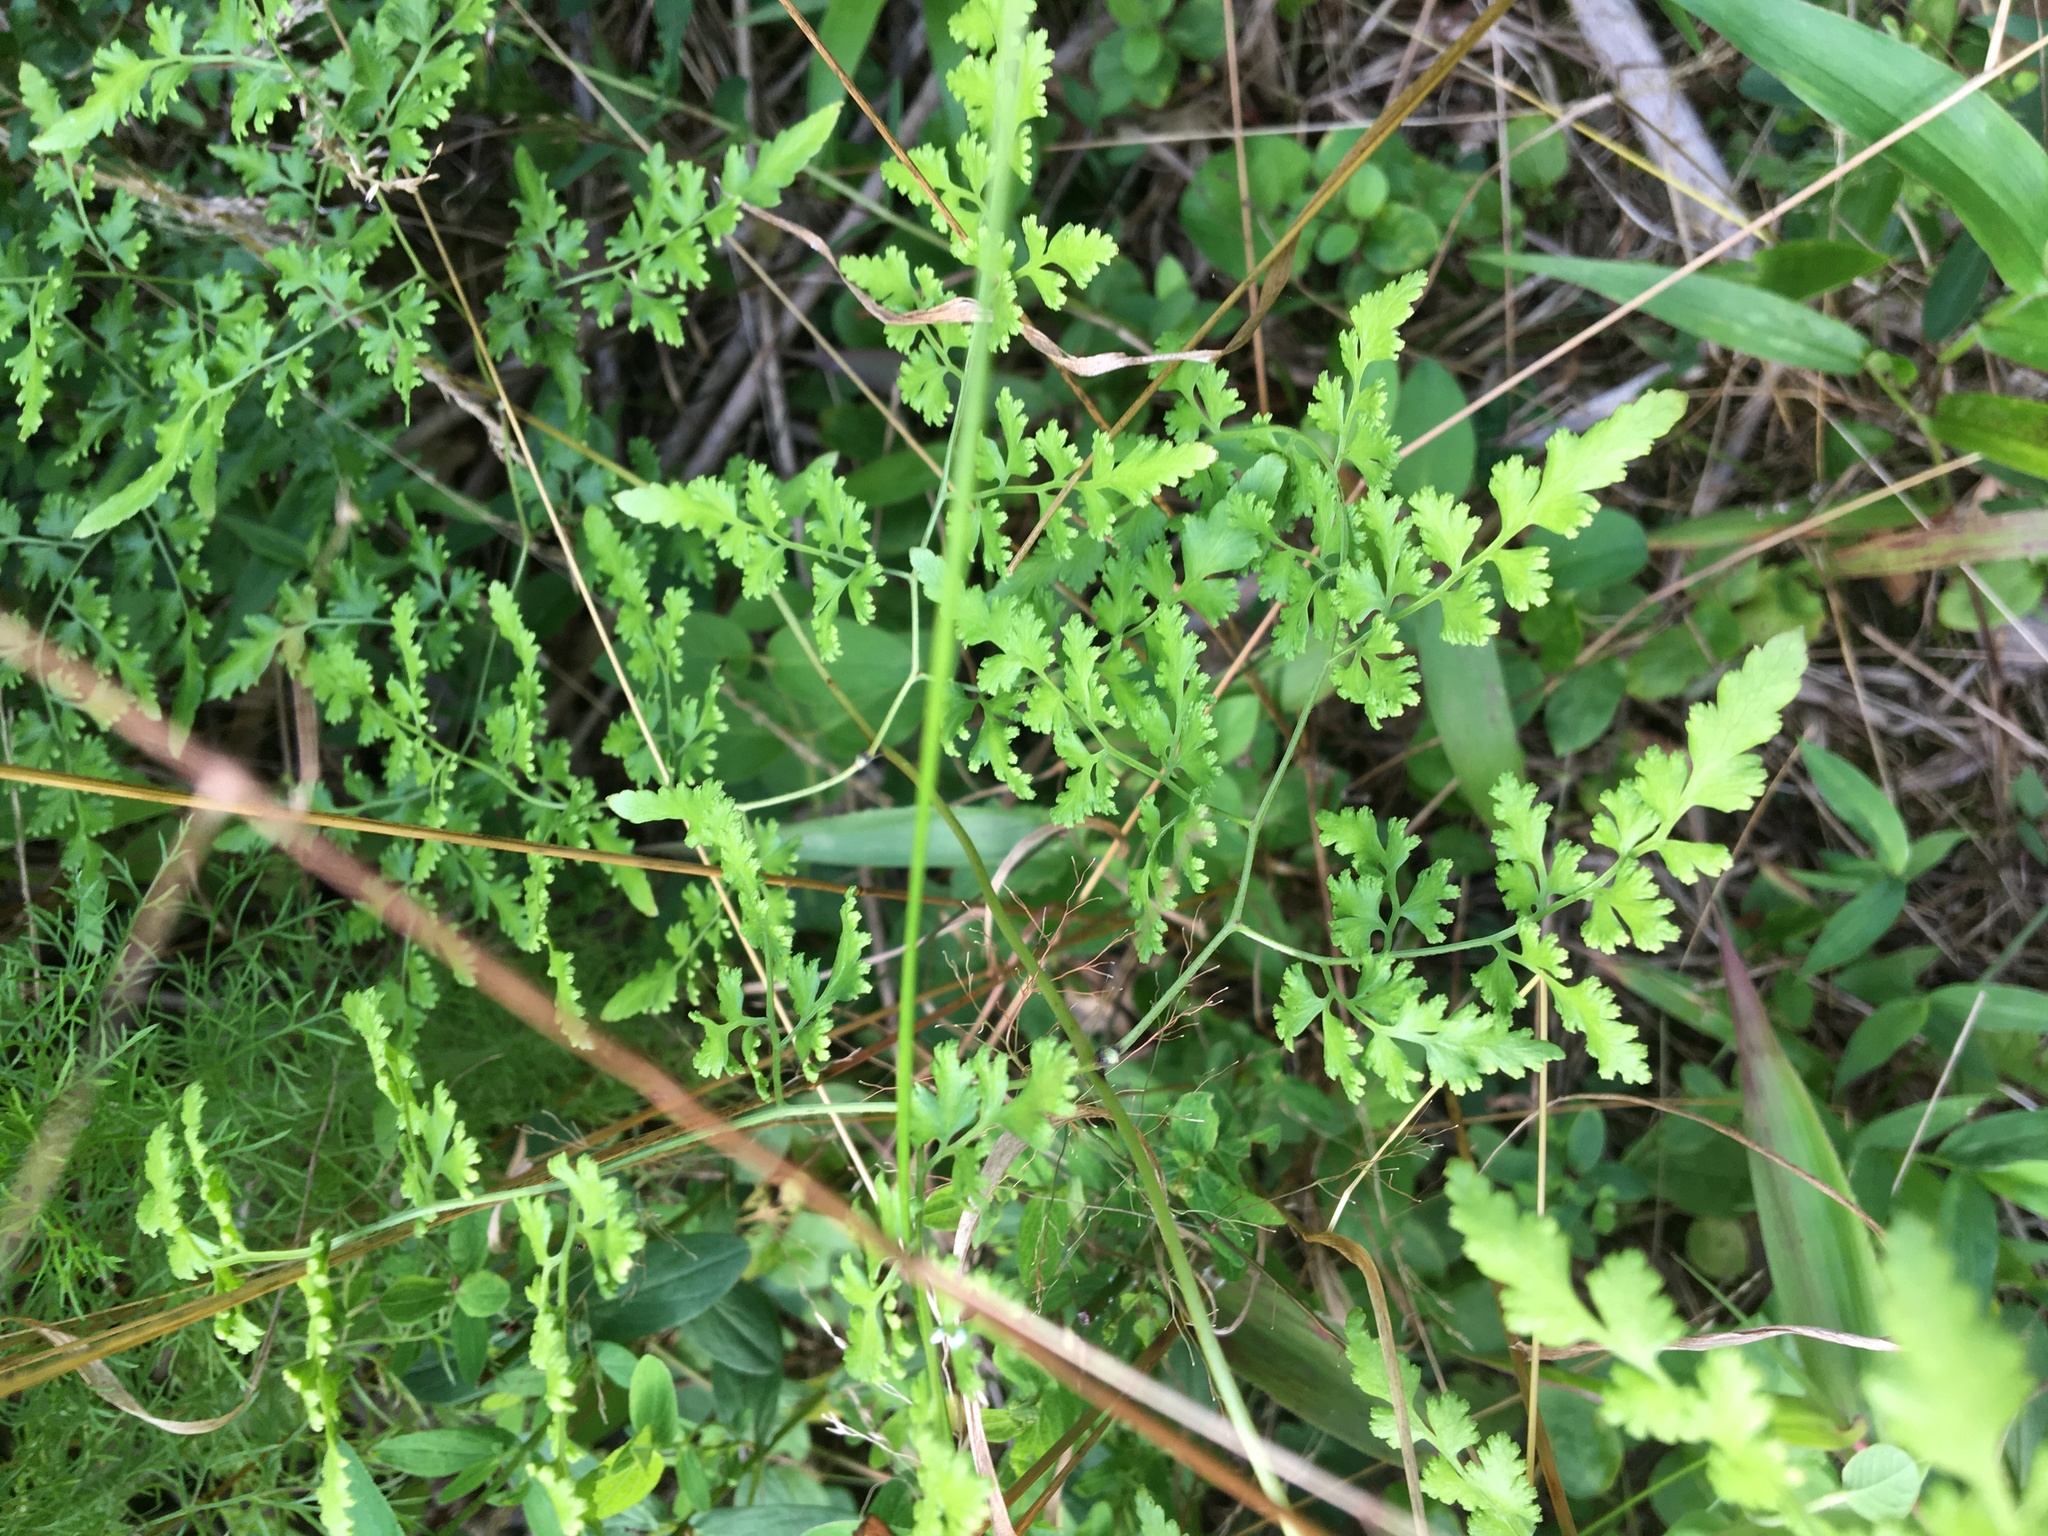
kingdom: Plantae
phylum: Tracheophyta
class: Polypodiopsida
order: Schizaeales
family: Lygodiaceae
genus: Lygodium
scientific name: Lygodium japonicum
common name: Japanese climbing fern
